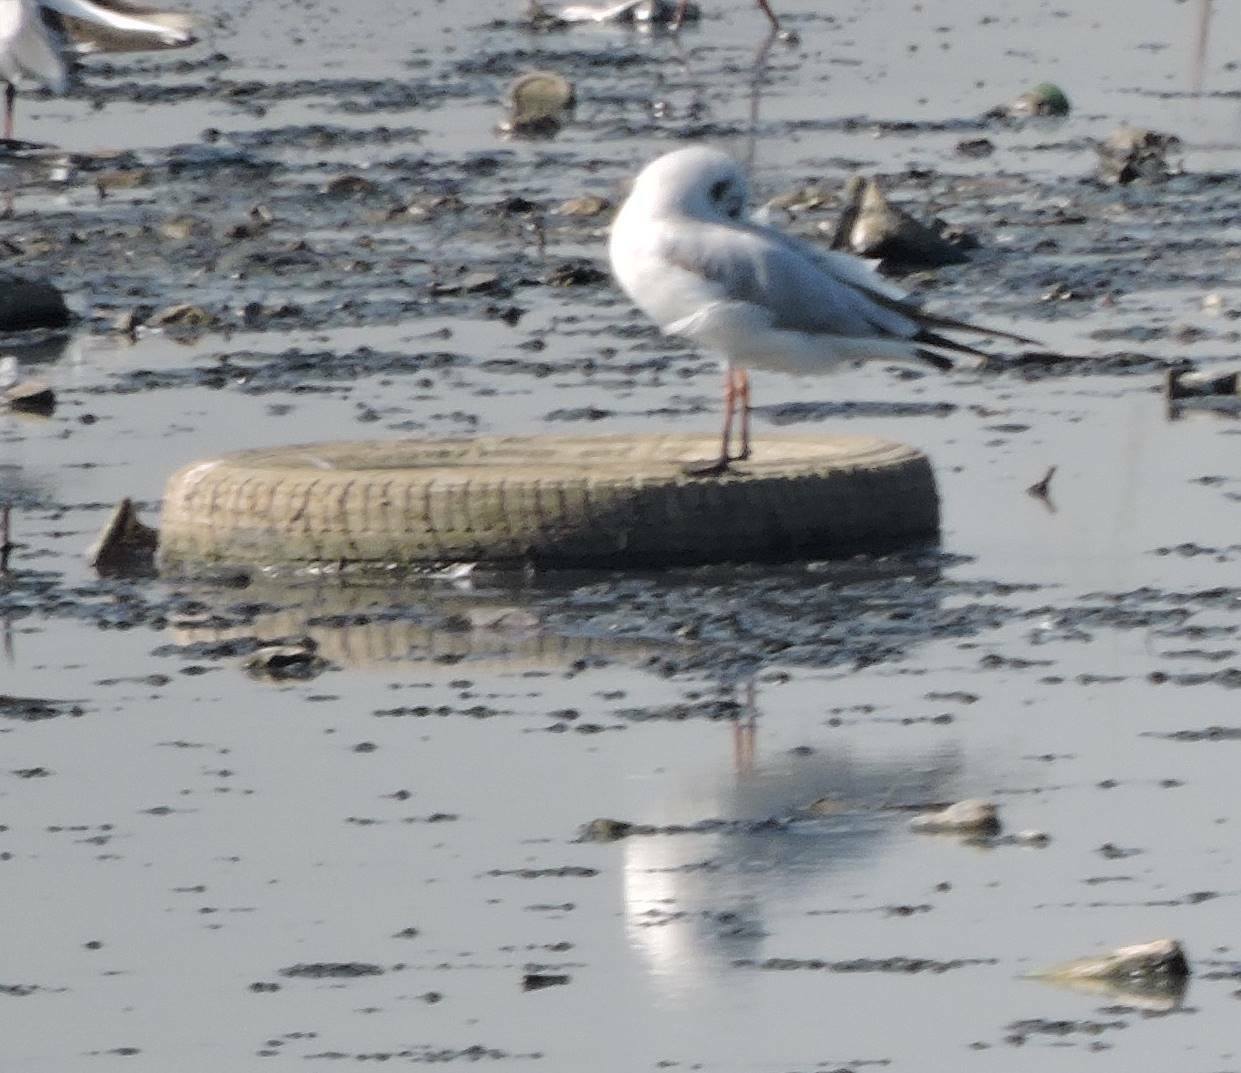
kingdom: Animalia
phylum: Chordata
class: Aves
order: Charadriiformes
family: Laridae
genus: Chroicocephalus
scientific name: Chroicocephalus ridibundus
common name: Black-headed gull
